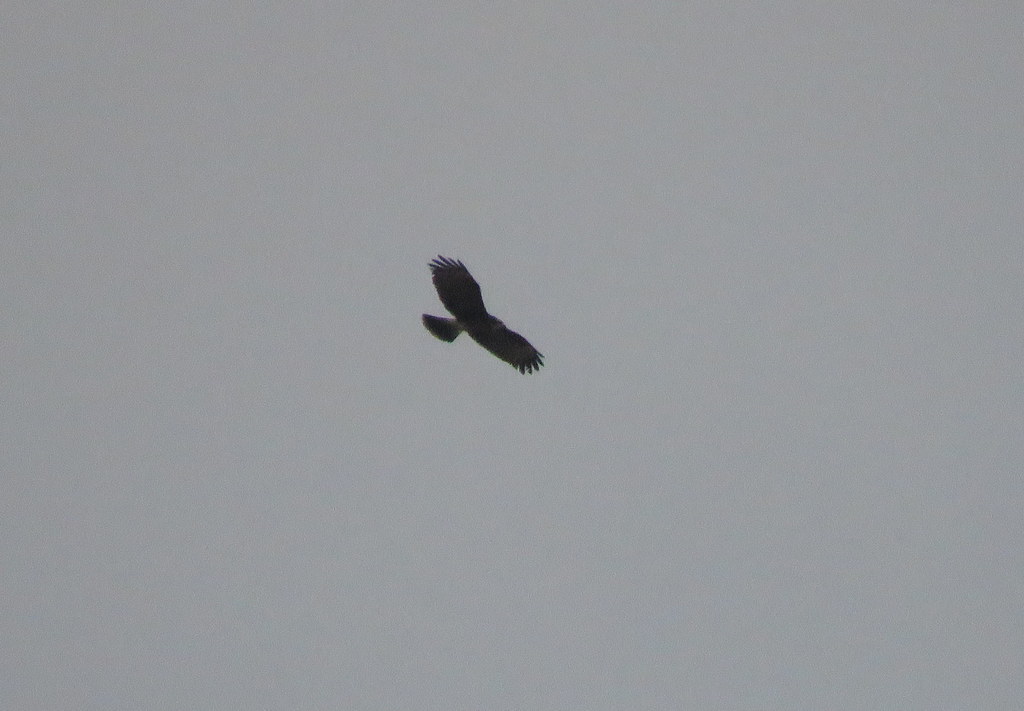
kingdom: Animalia
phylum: Chordata
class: Aves
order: Accipitriformes
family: Accipitridae
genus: Rostrhamus
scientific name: Rostrhamus sociabilis
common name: Snail kite
